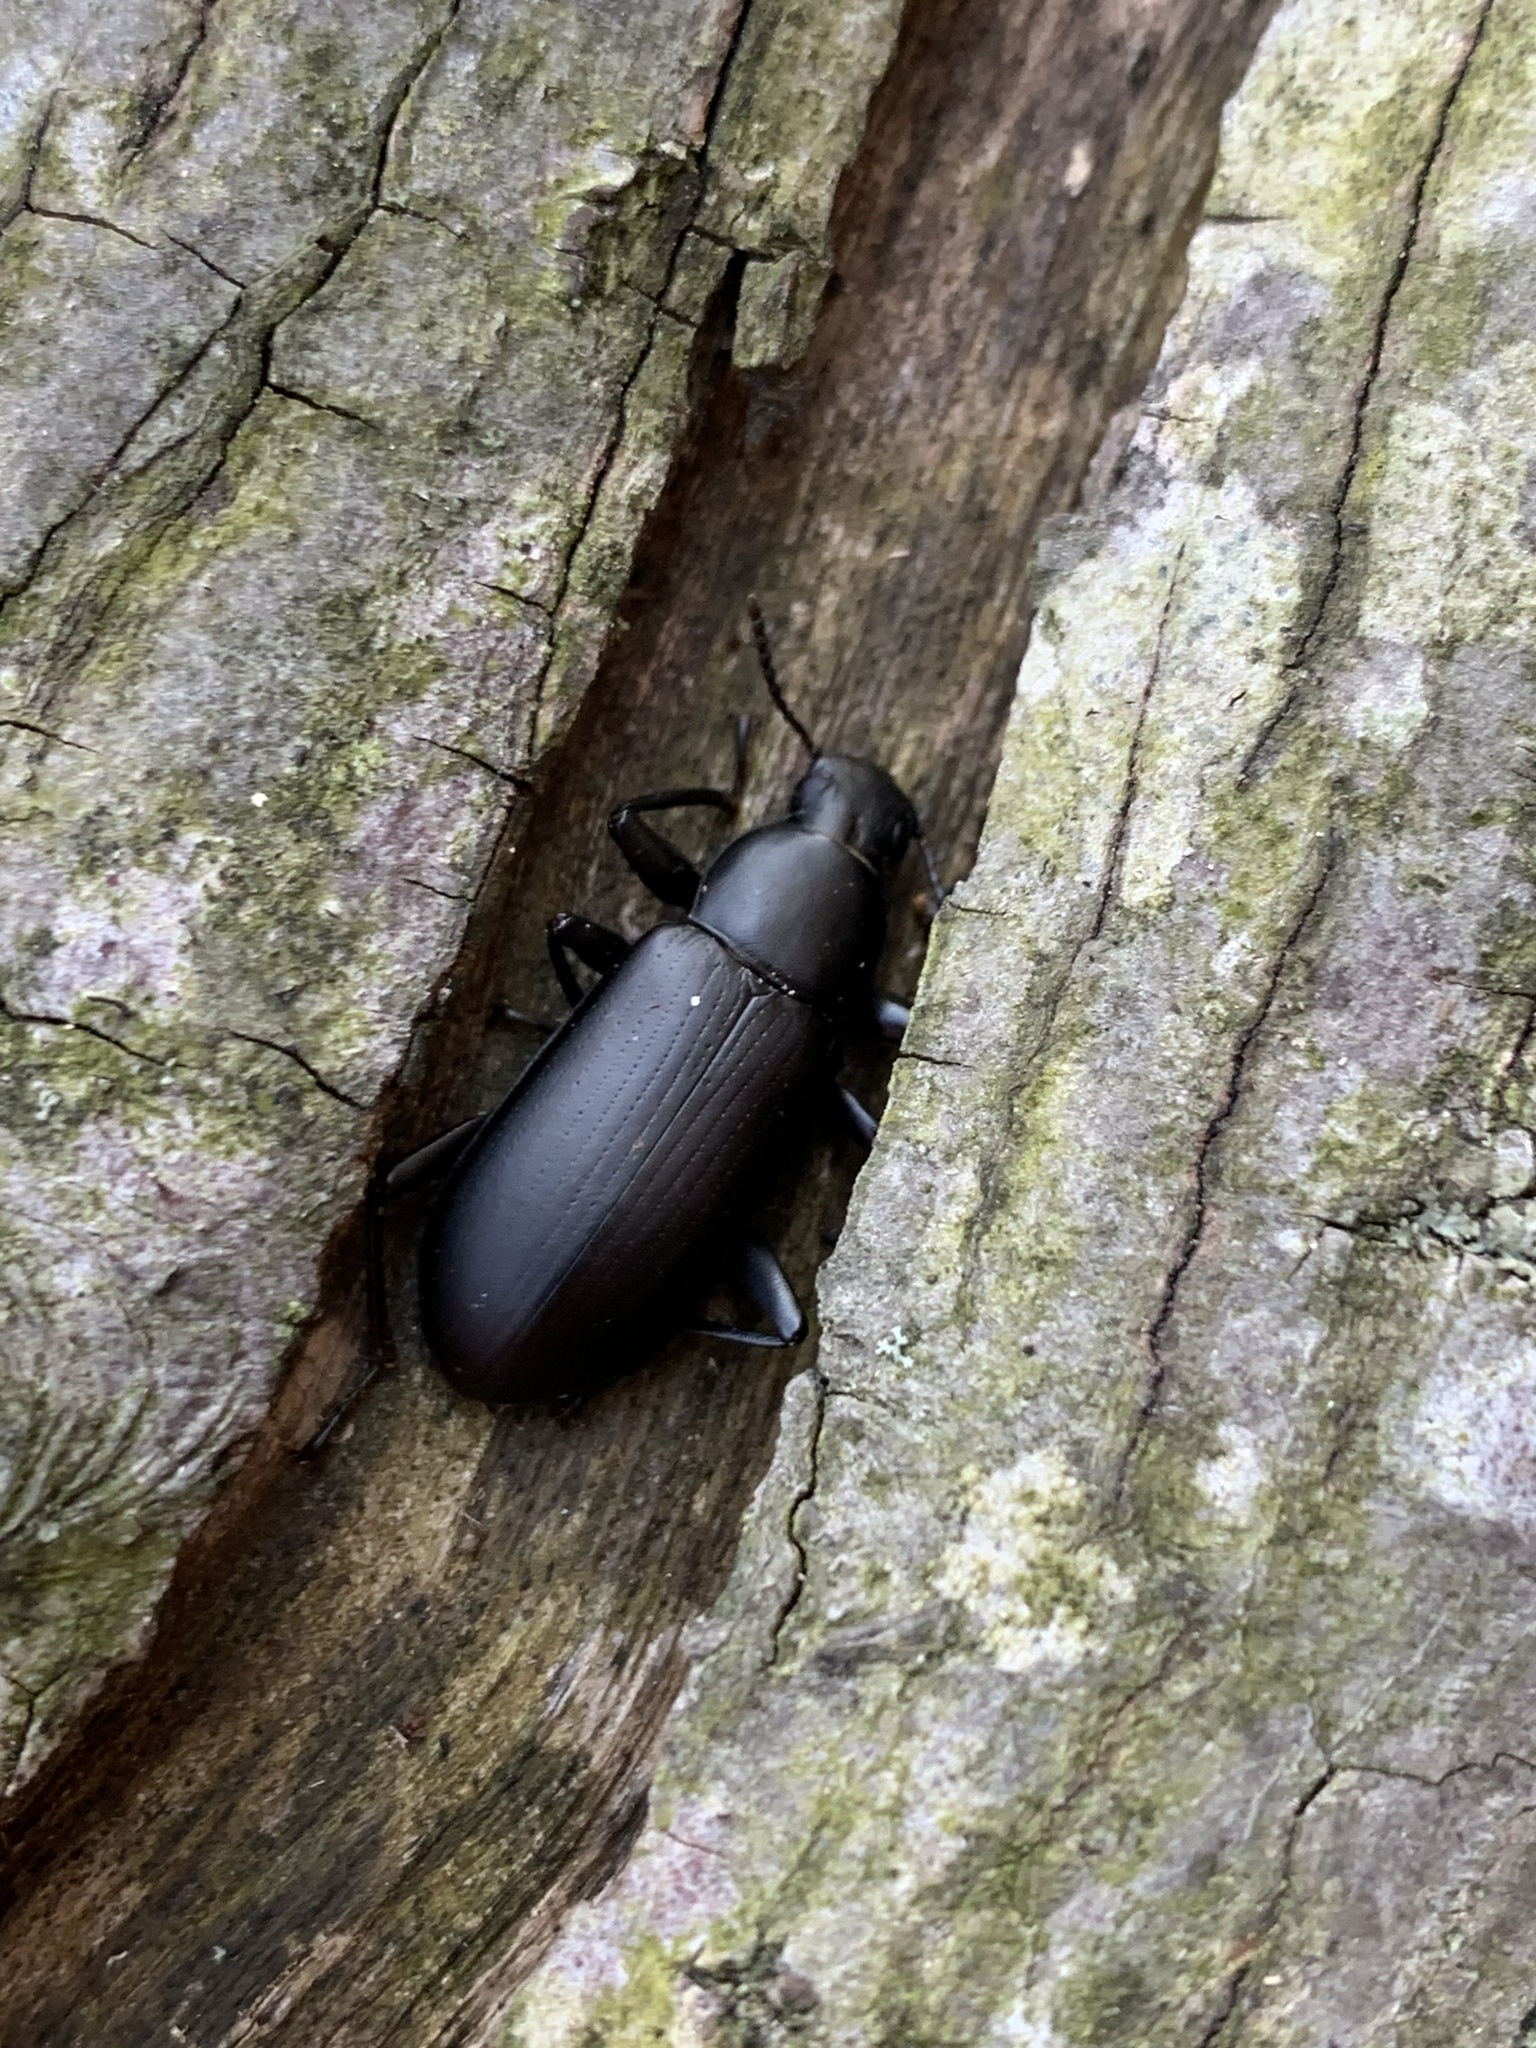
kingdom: Animalia
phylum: Arthropoda
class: Insecta
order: Coleoptera
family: Tenebrionidae
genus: Alobates
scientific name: Alobates
